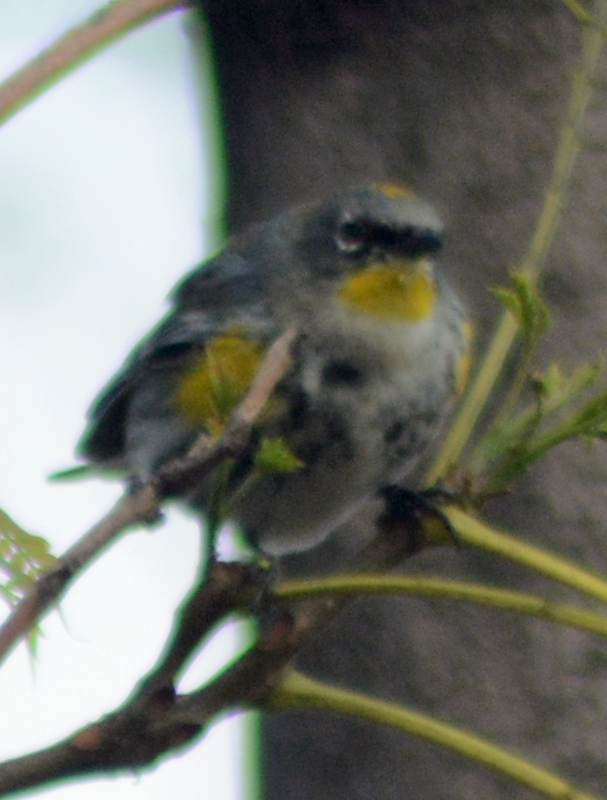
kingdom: Animalia
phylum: Chordata
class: Aves
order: Passeriformes
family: Parulidae
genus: Setophaga
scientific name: Setophaga auduboni
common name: Audubon's warbler
